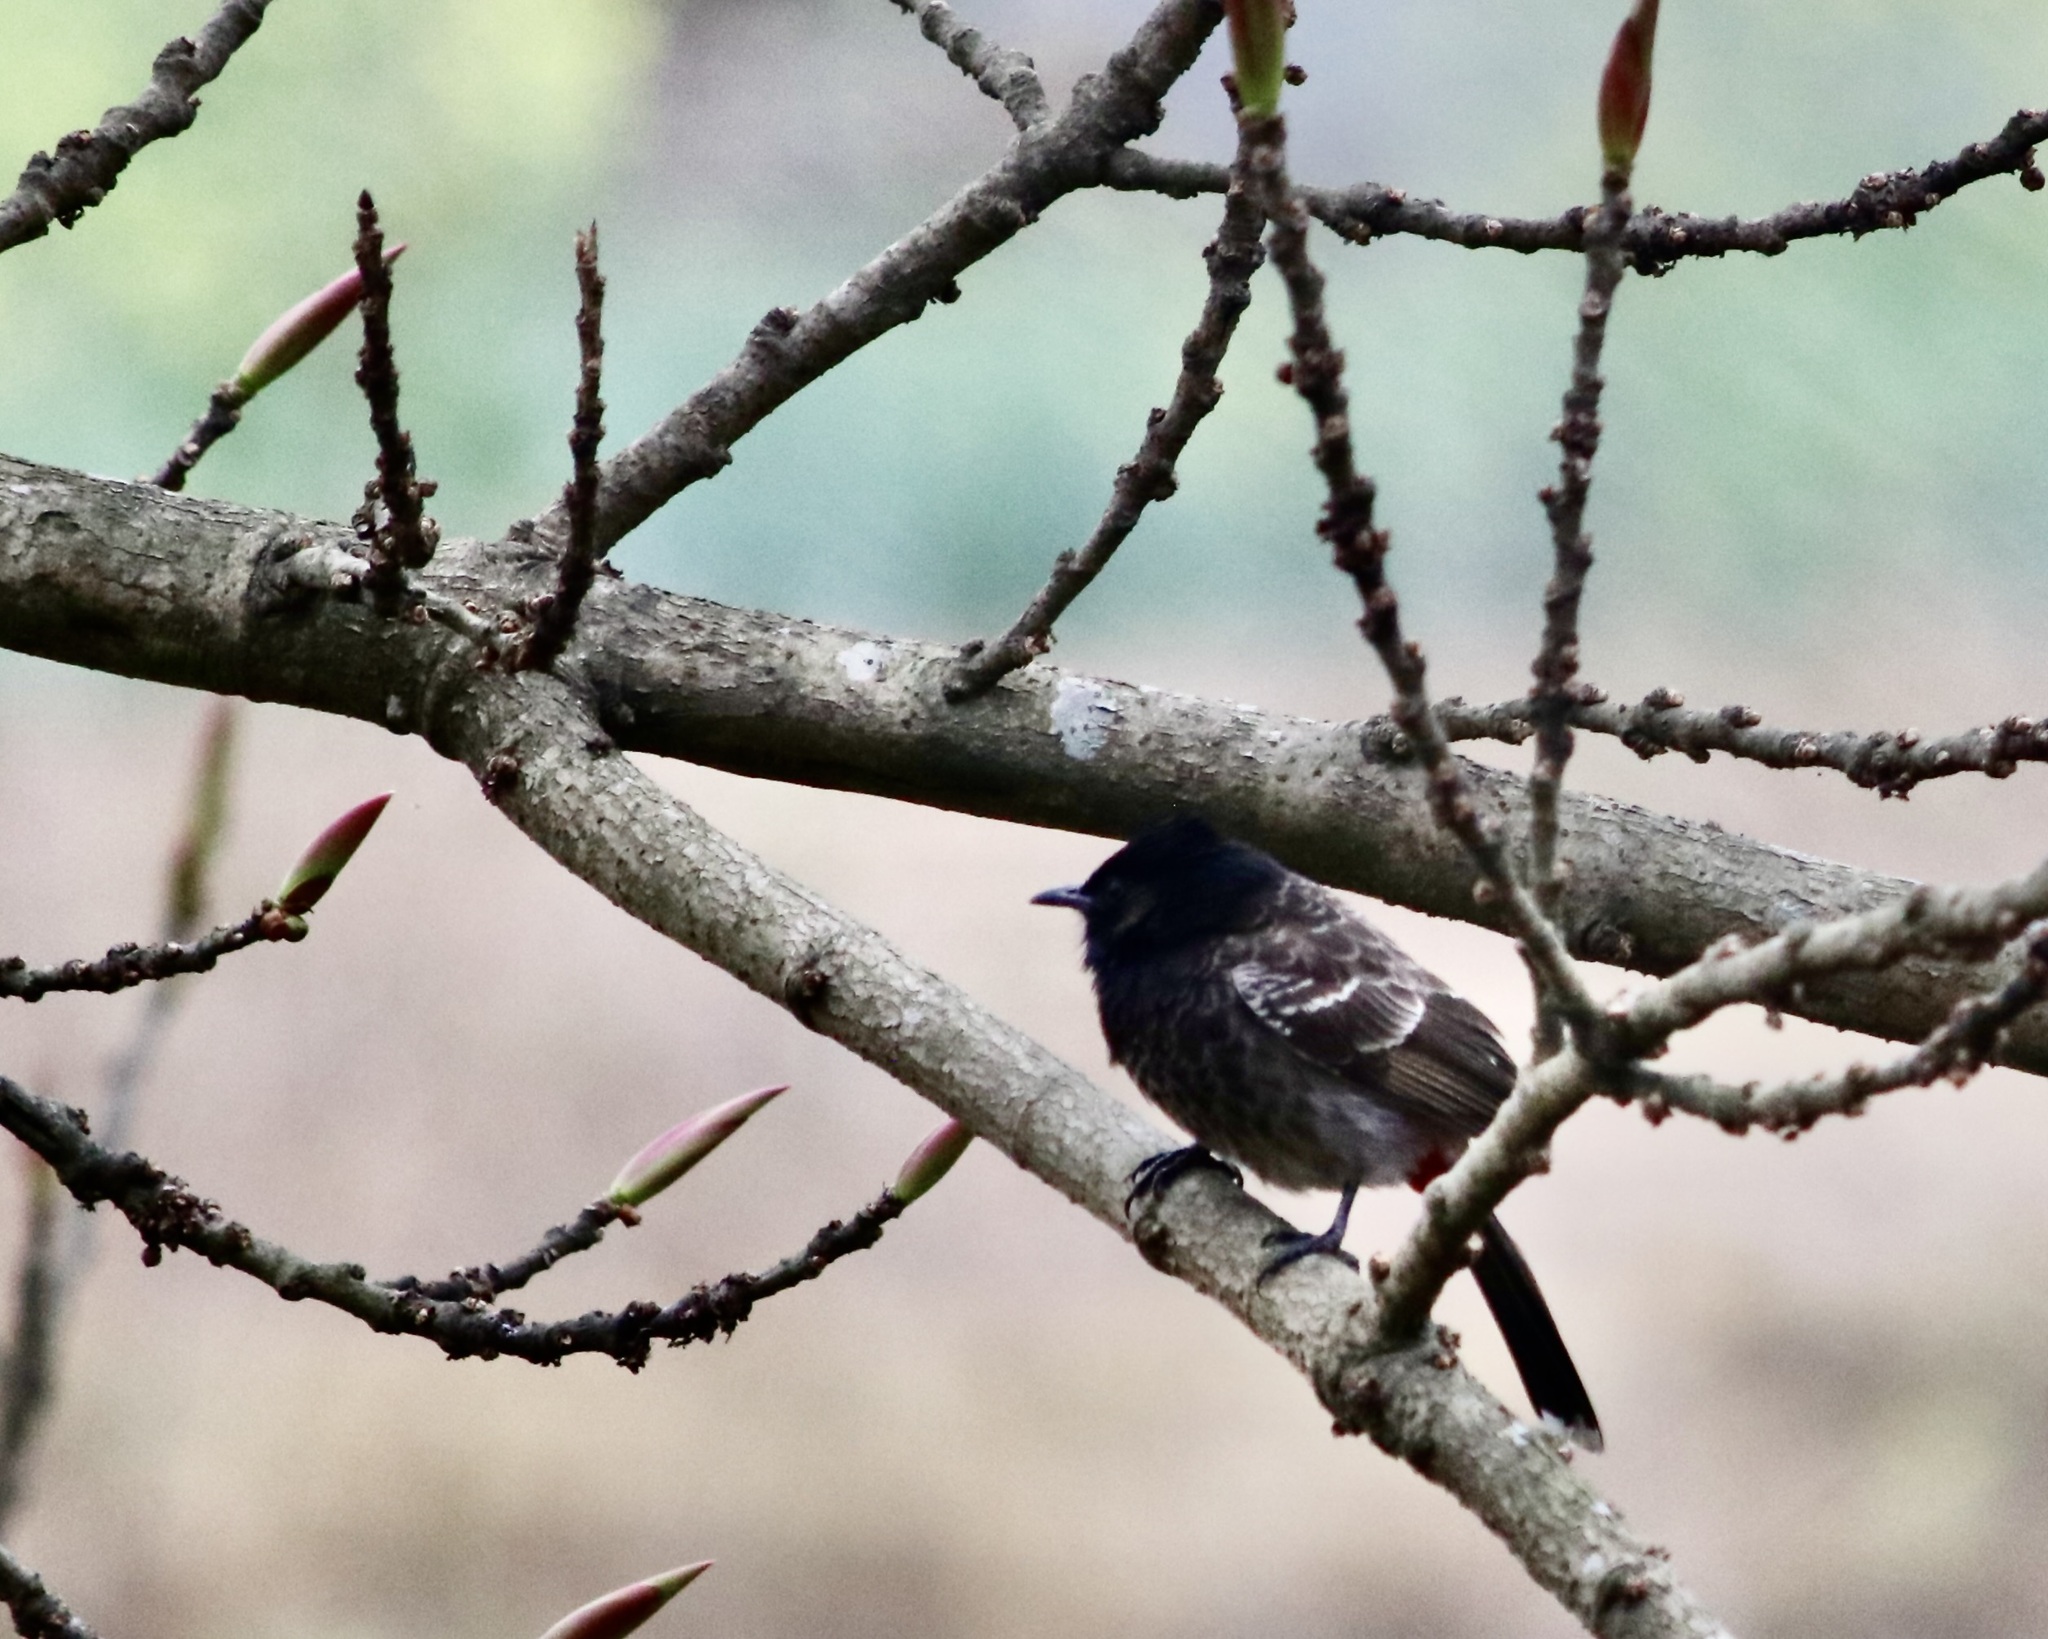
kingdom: Animalia
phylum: Chordata
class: Aves
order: Passeriformes
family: Pycnonotidae
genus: Pycnonotus
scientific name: Pycnonotus cafer
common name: Red-vented bulbul
